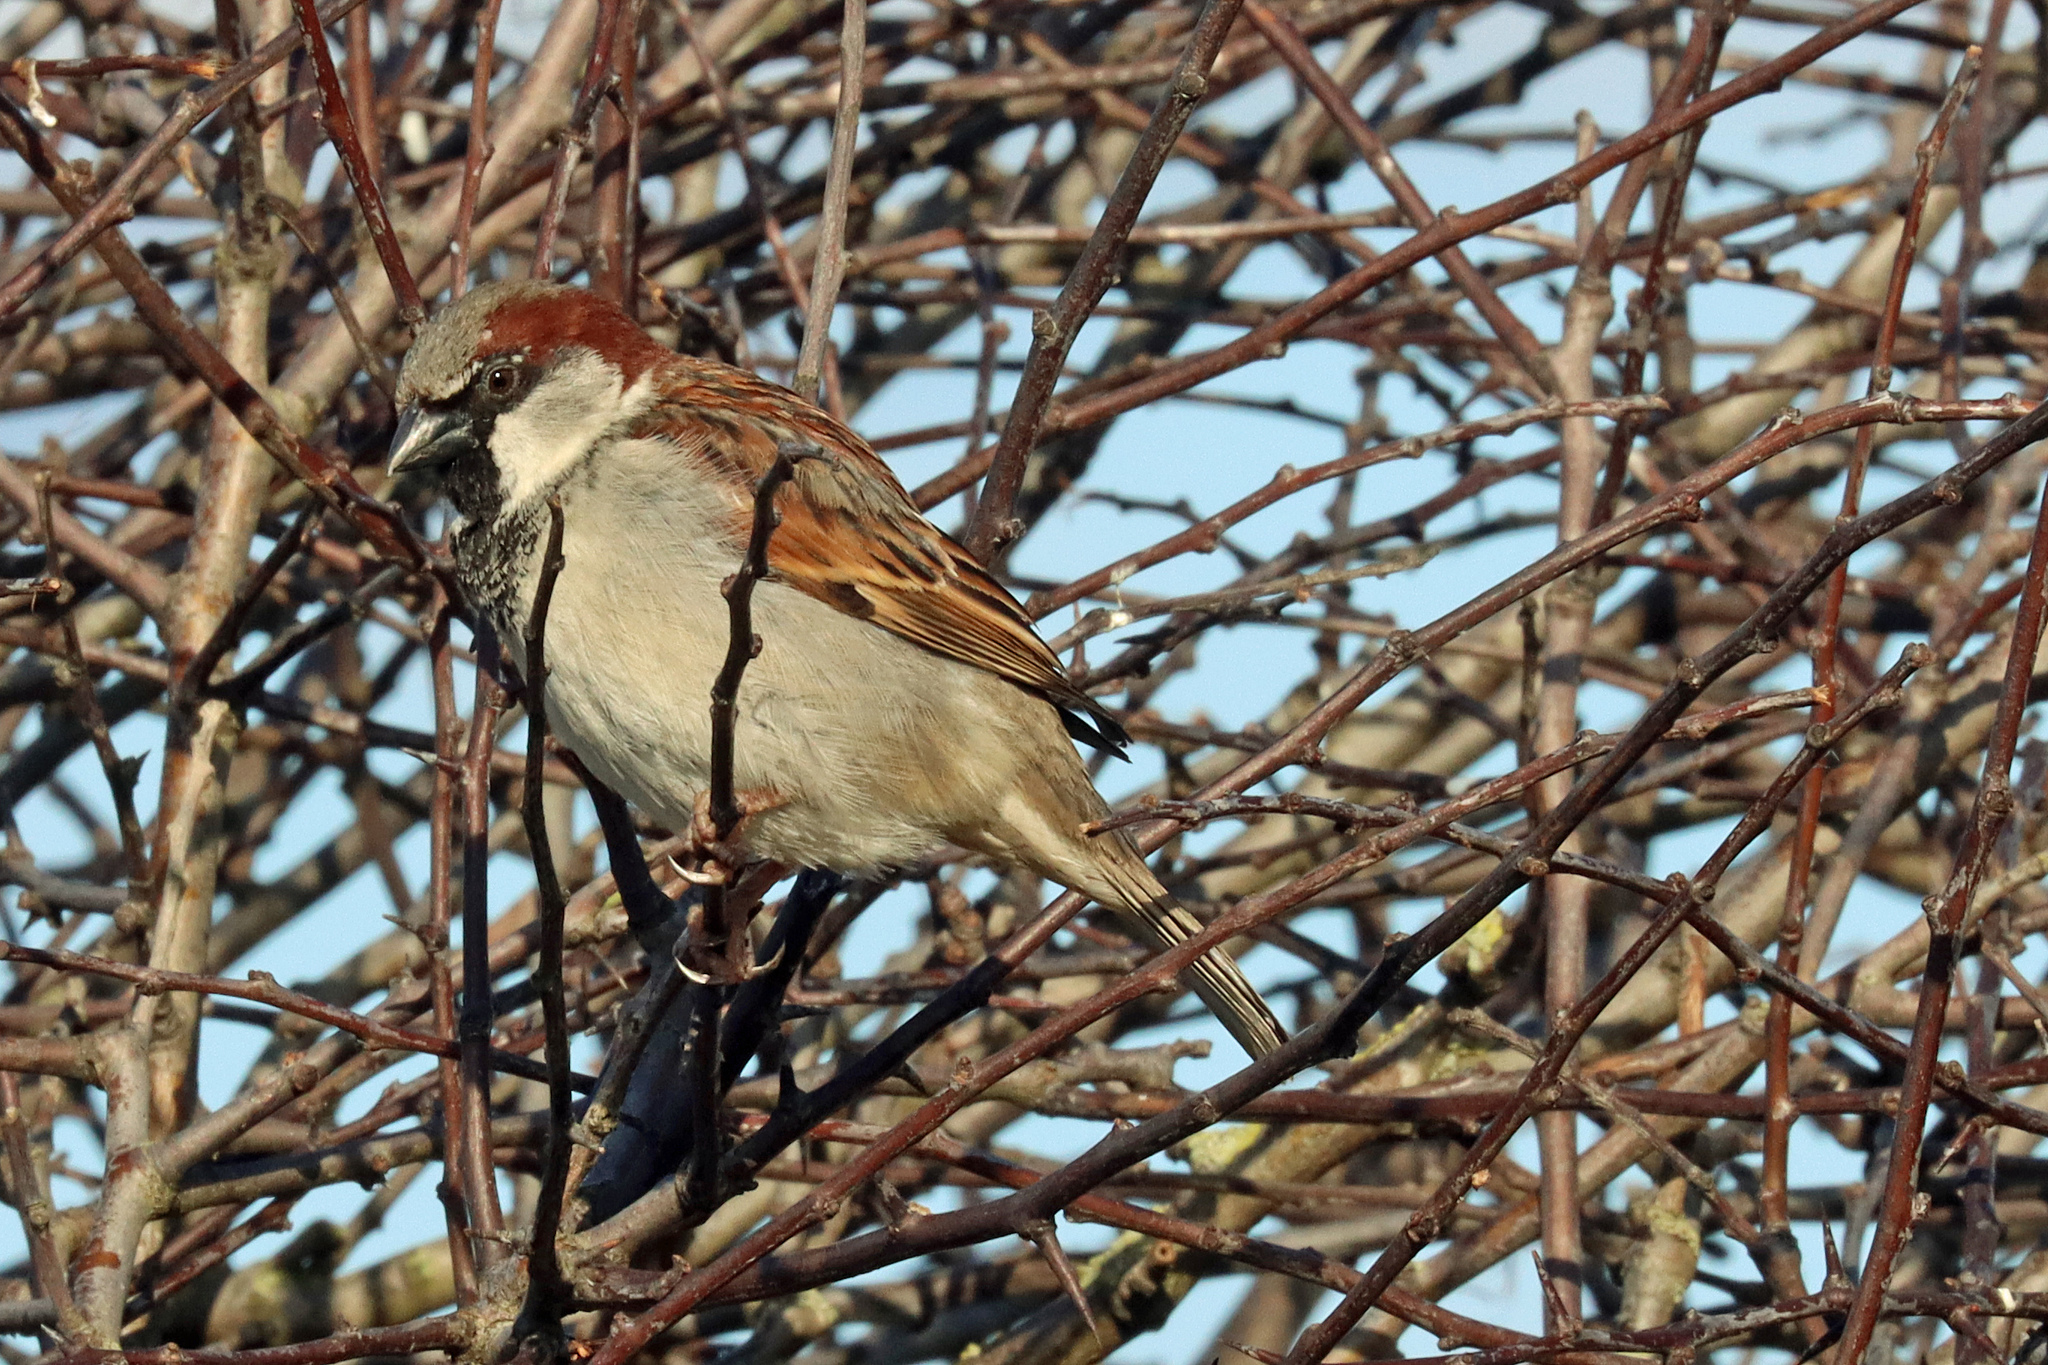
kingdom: Animalia
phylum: Chordata
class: Aves
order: Passeriformes
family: Passeridae
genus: Passer
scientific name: Passer domesticus
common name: House sparrow
